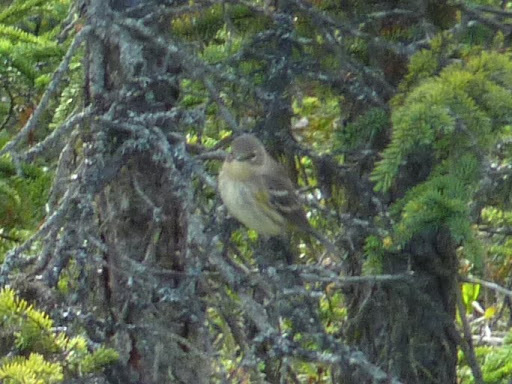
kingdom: Animalia
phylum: Chordata
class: Aves
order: Passeriformes
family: Parulidae
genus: Setophaga
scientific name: Setophaga coronata
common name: Myrtle warbler
